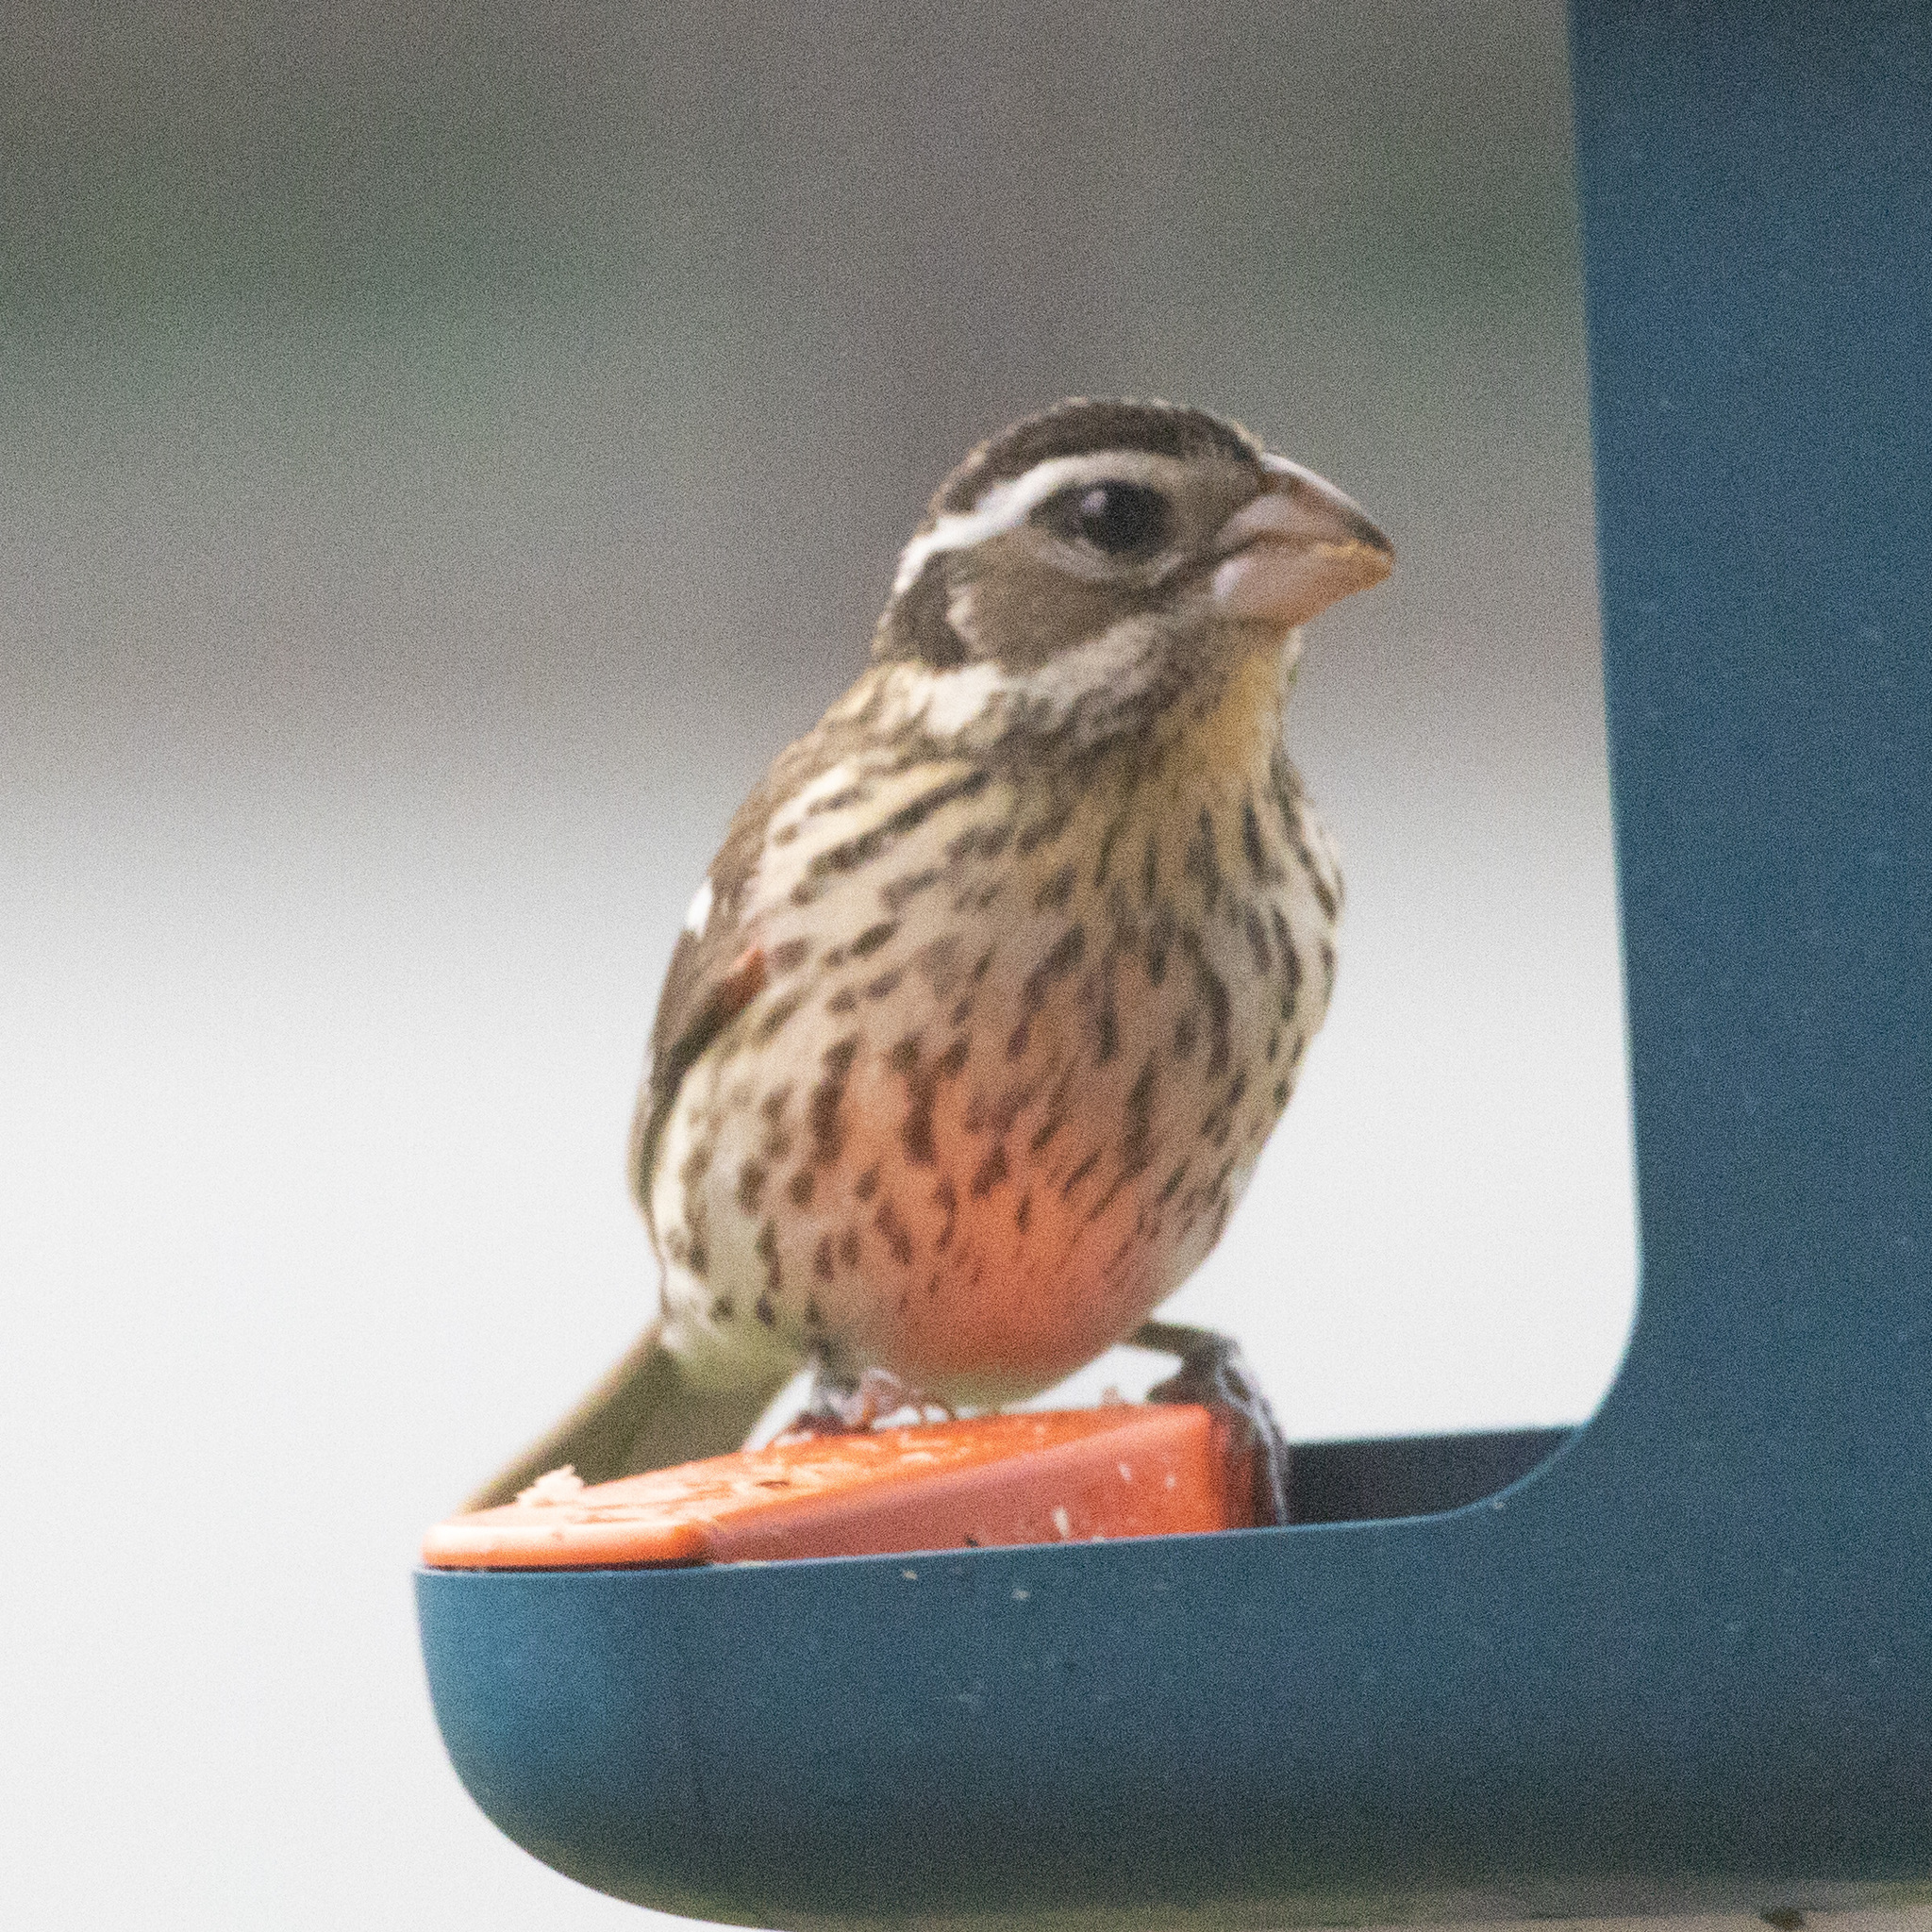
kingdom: Animalia
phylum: Chordata
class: Aves
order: Passeriformes
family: Cardinalidae
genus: Pheucticus
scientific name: Pheucticus ludovicianus
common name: Rose-breasted grosbeak
